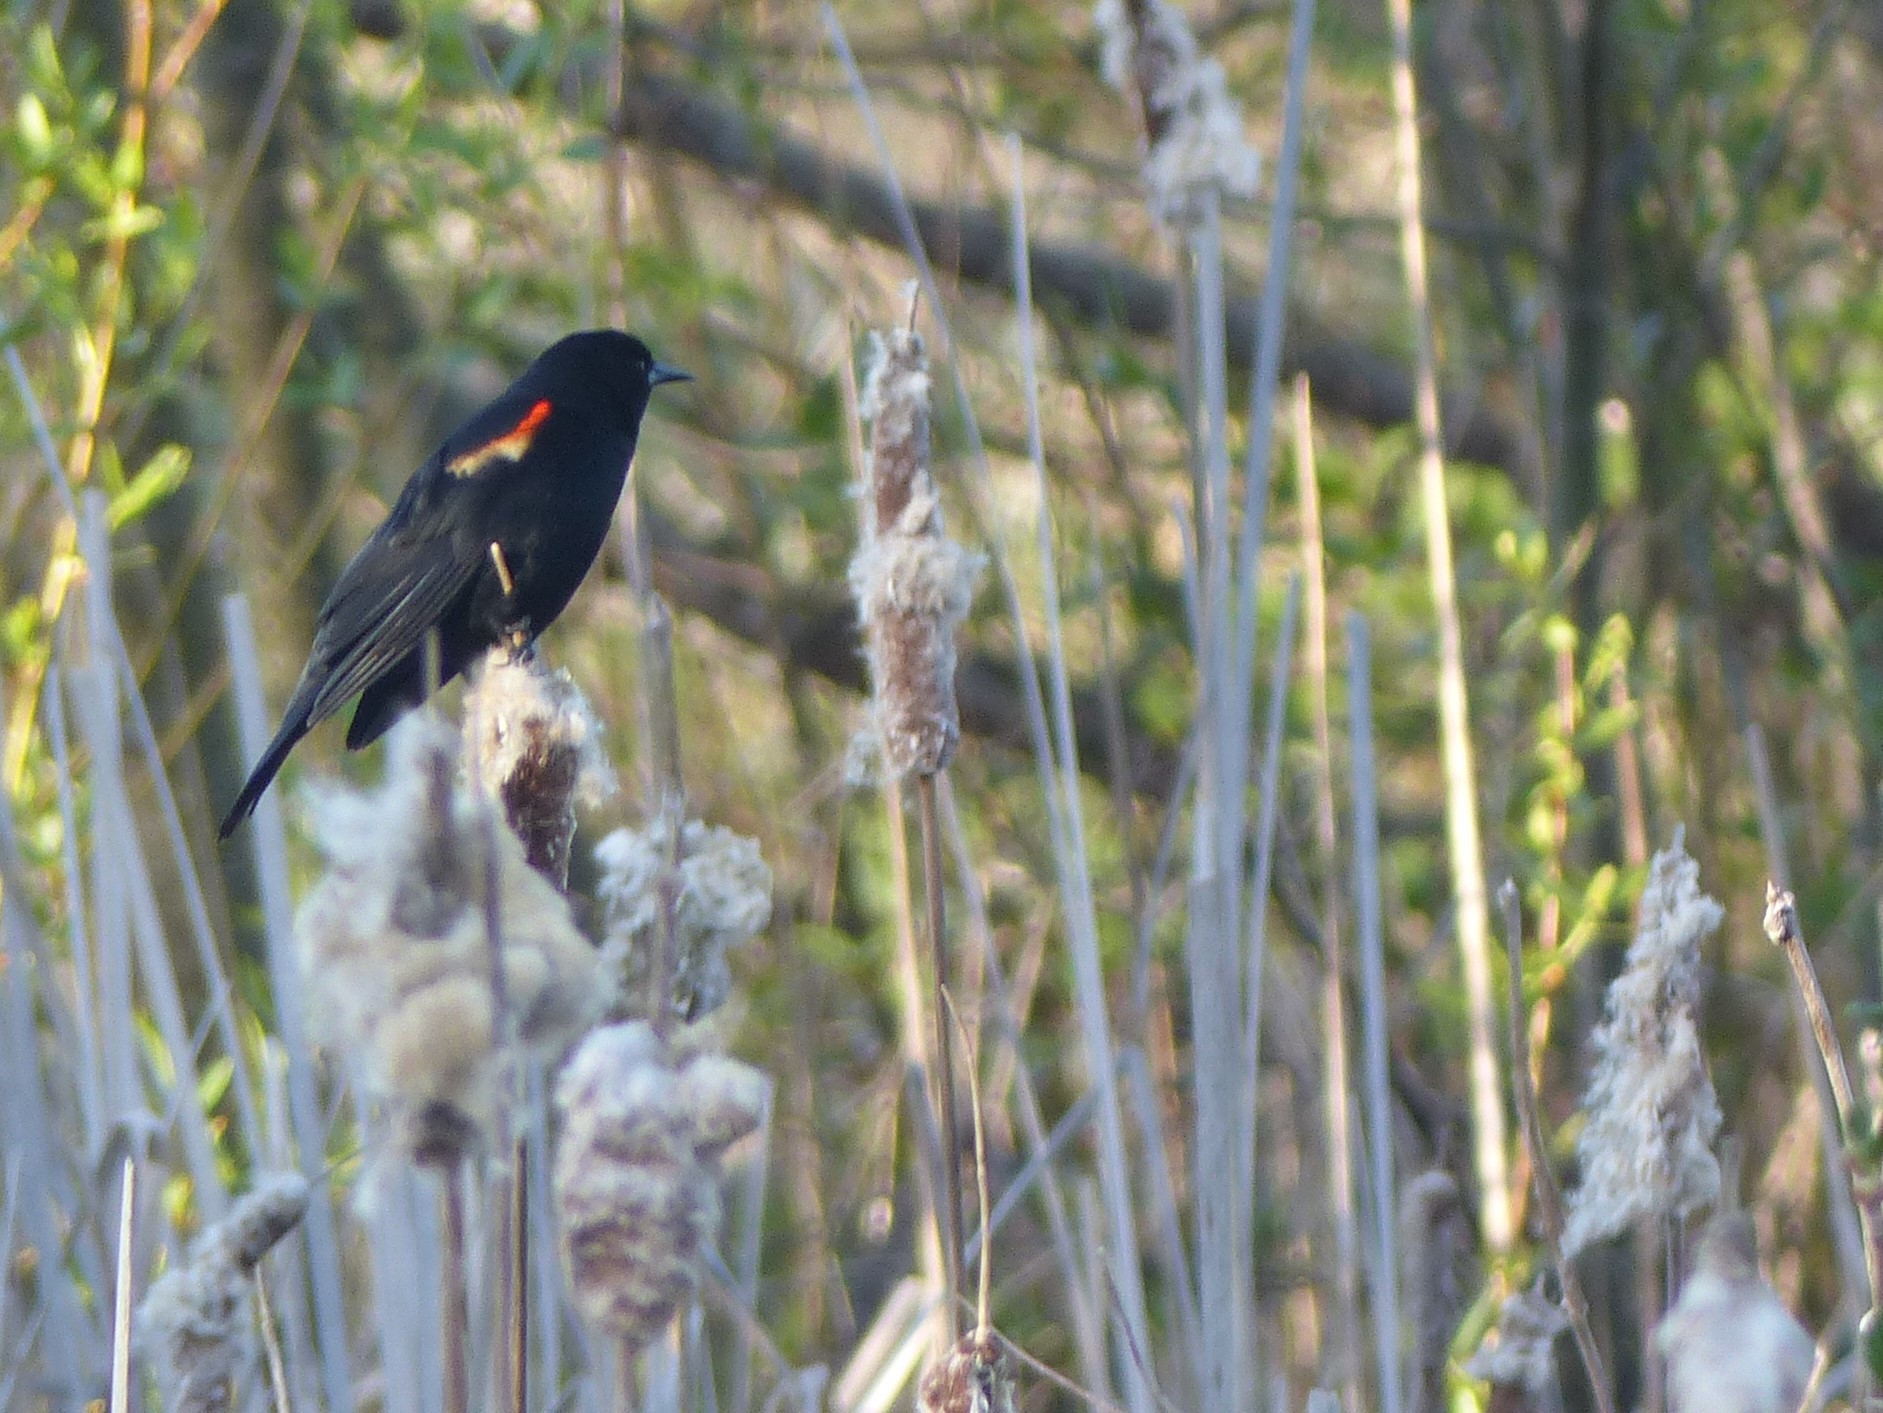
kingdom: Animalia
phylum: Chordata
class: Aves
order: Passeriformes
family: Icteridae
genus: Agelaius
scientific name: Agelaius phoeniceus
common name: Red-winged blackbird
